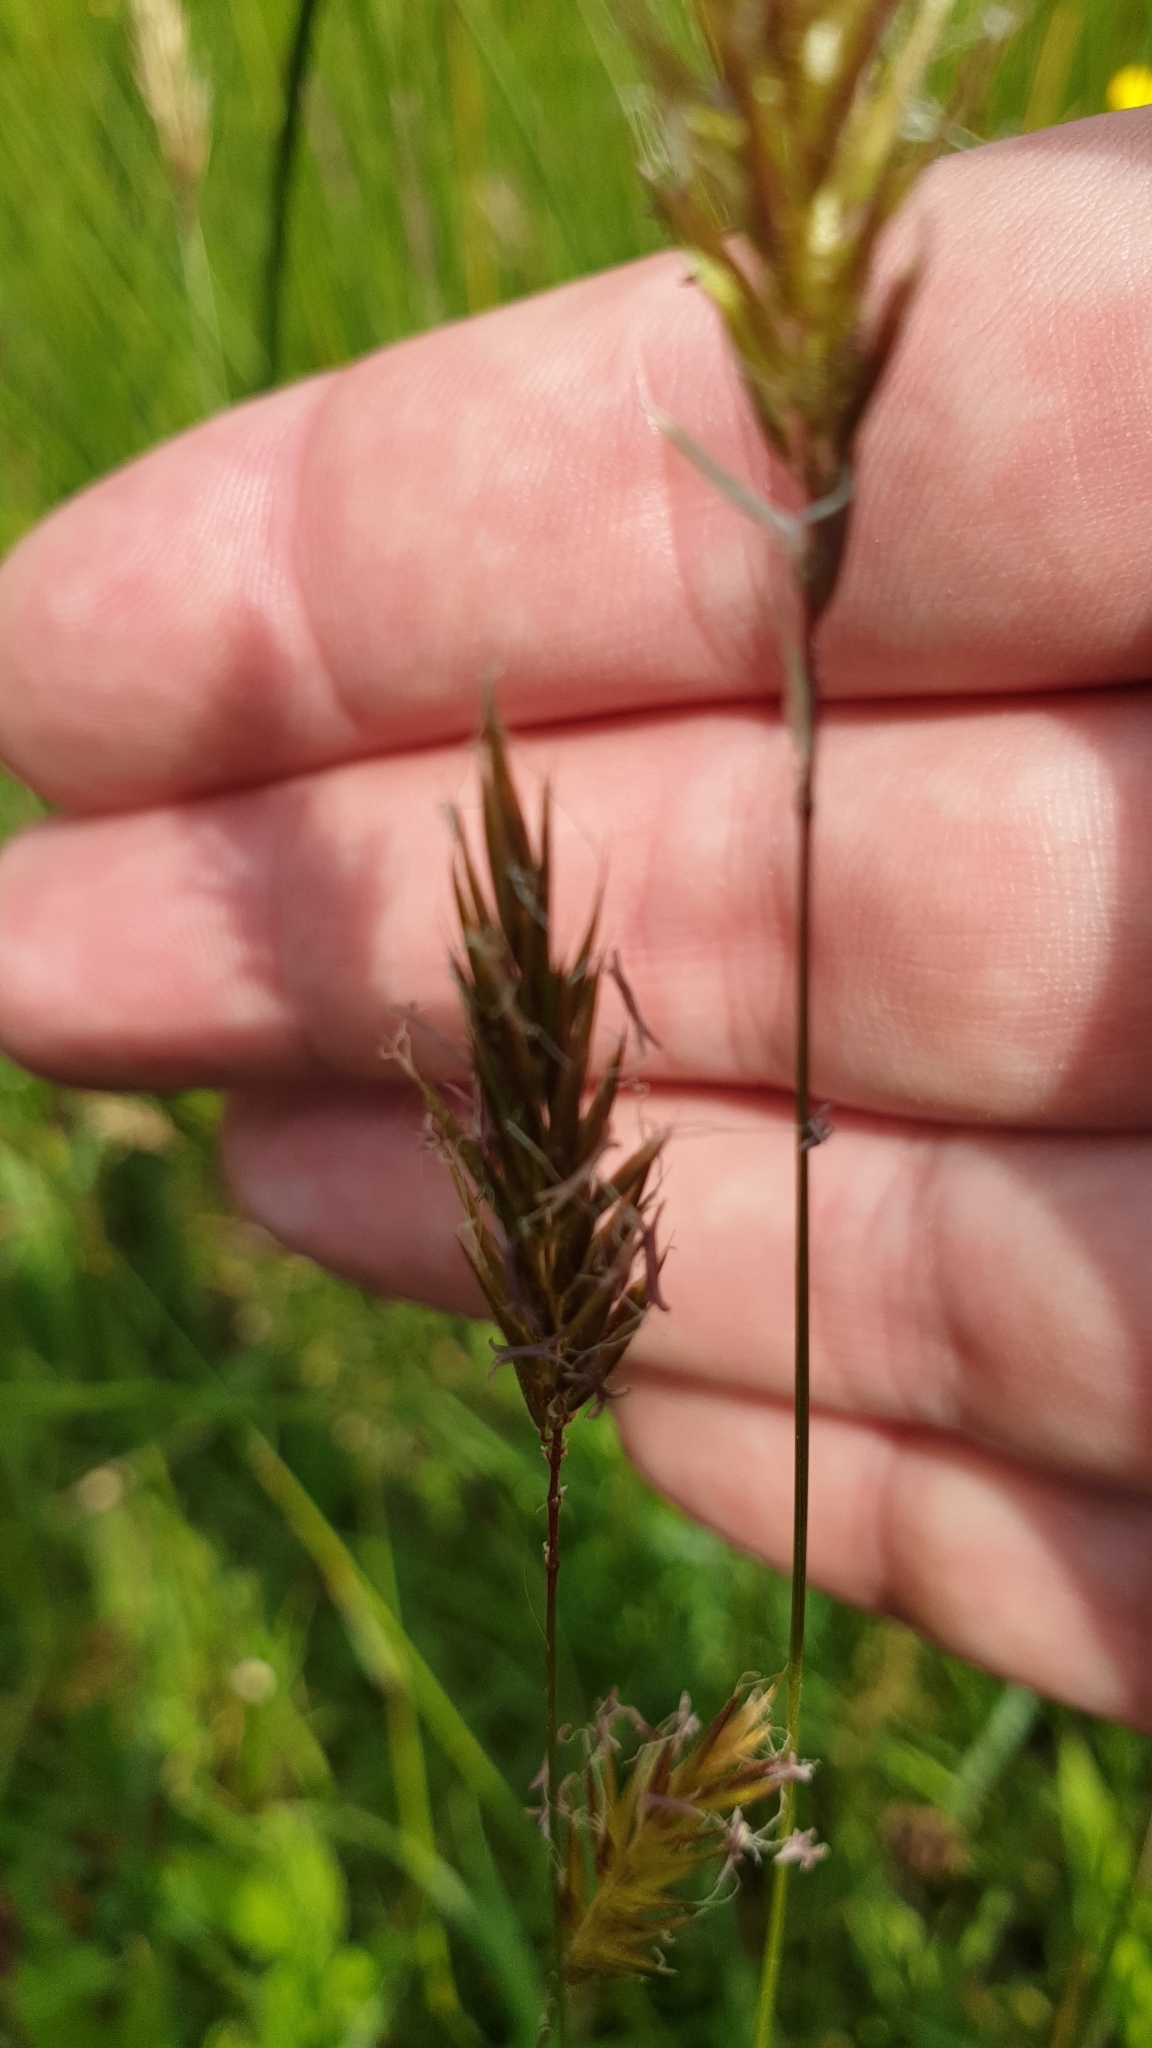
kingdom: Plantae
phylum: Tracheophyta
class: Liliopsida
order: Poales
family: Poaceae
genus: Anthoxanthum
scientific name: Anthoxanthum odoratum
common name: Sweet vernalgrass
